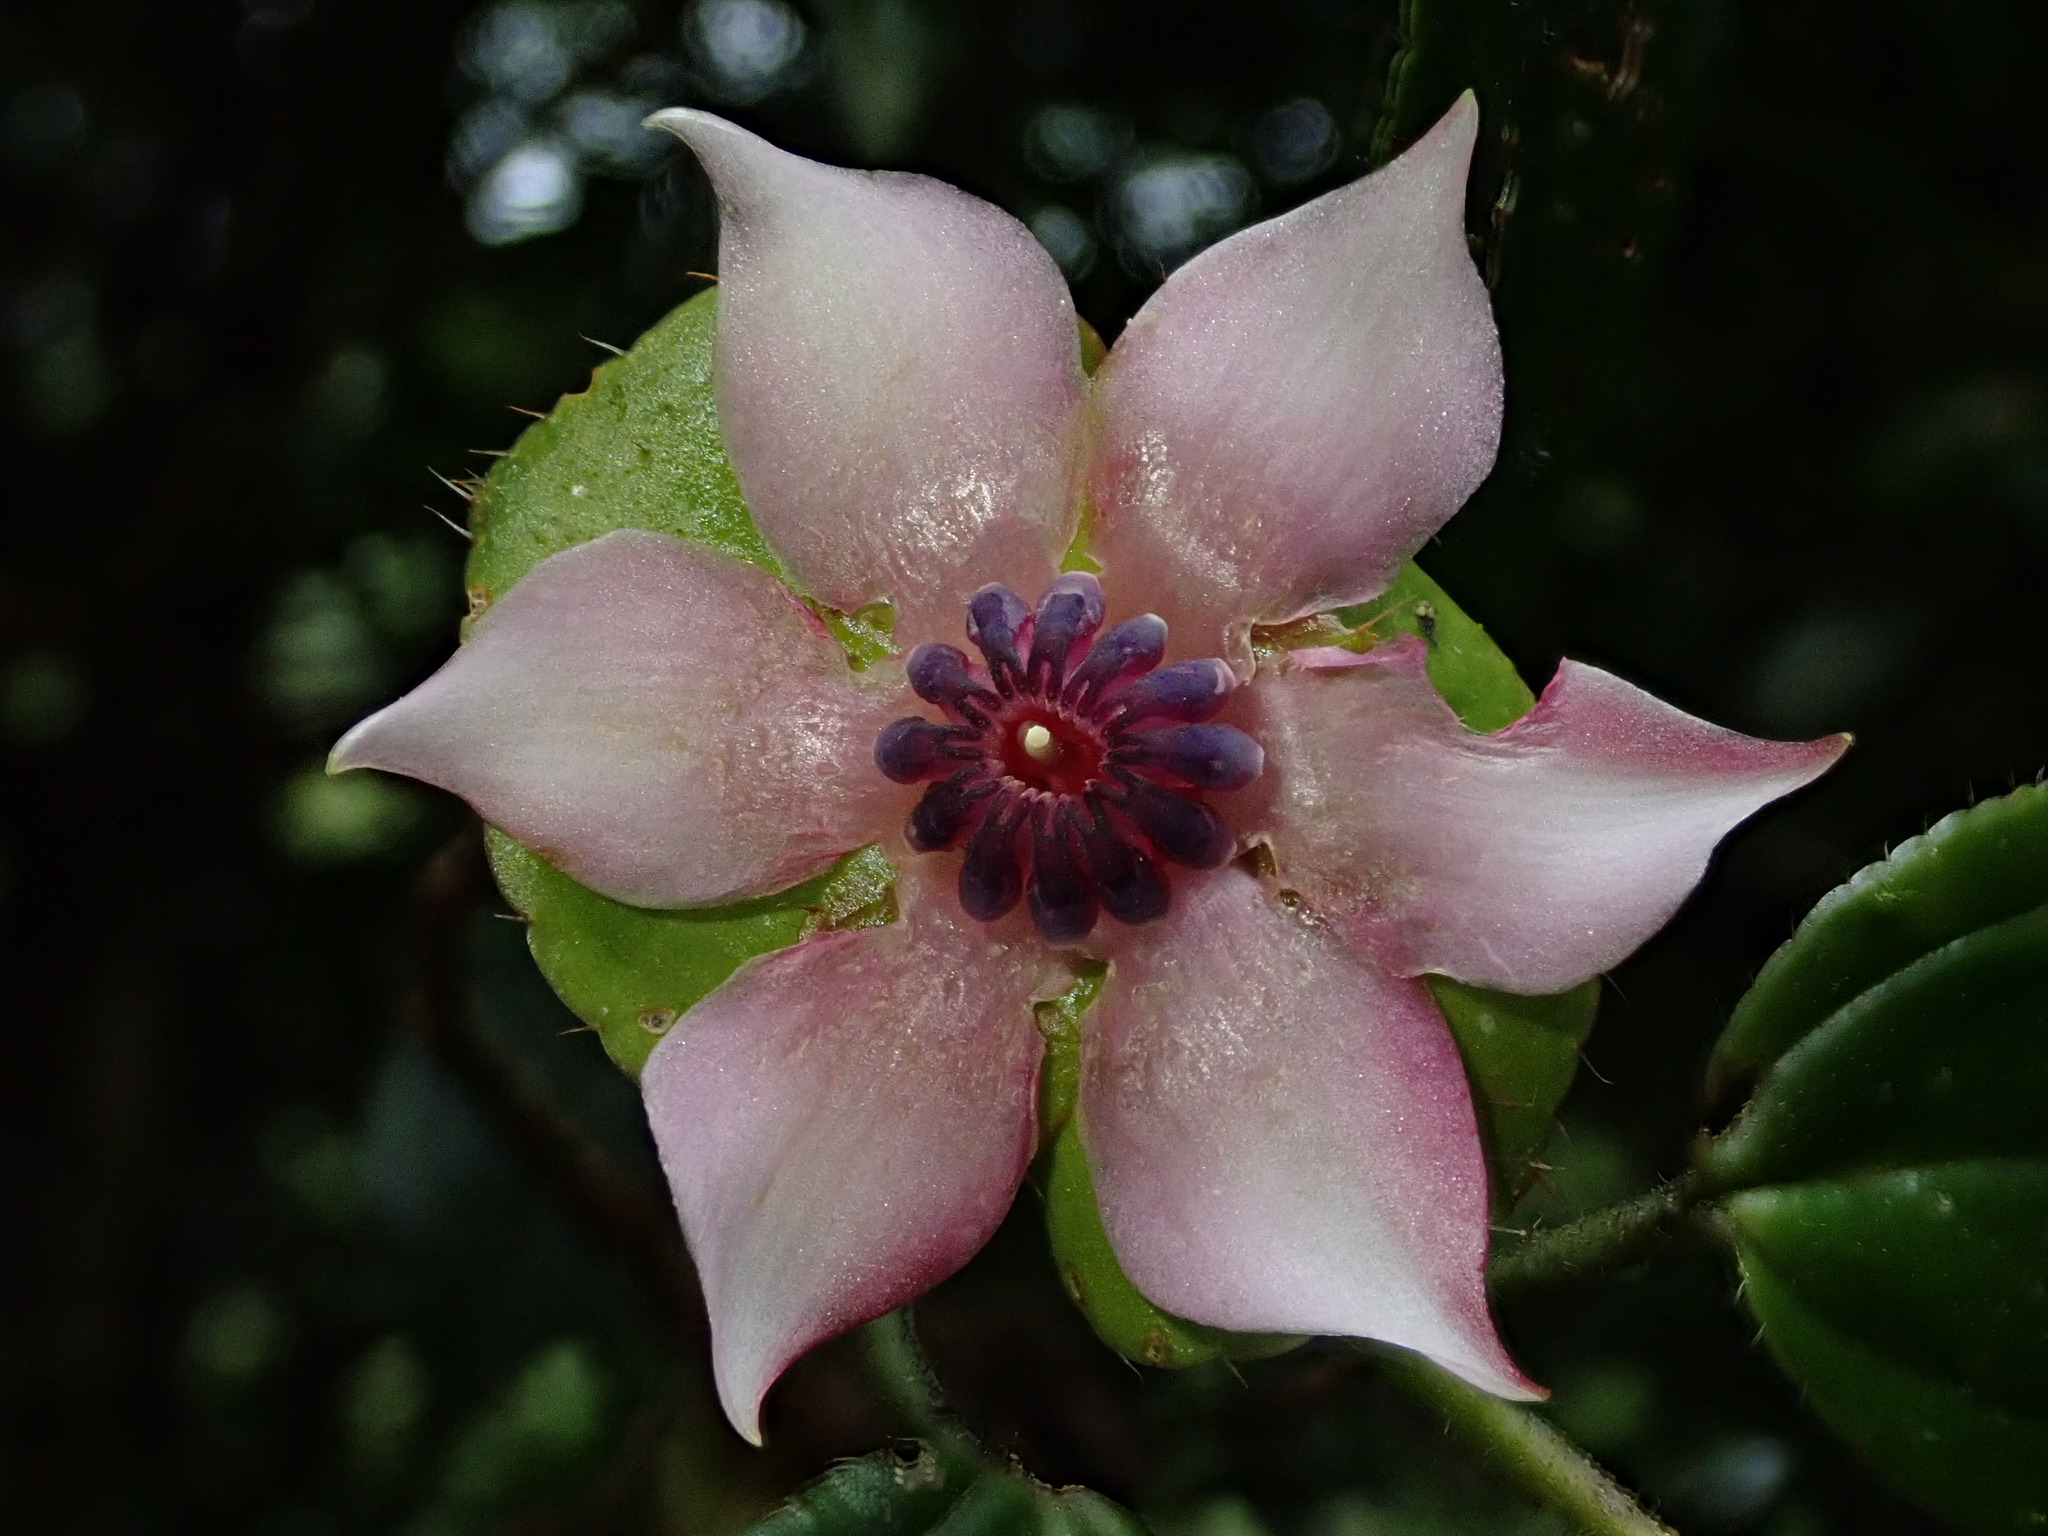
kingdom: Plantae
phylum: Tracheophyta
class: Magnoliopsida
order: Myrtales
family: Melastomataceae
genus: Blakea
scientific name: Blakea bracteata
